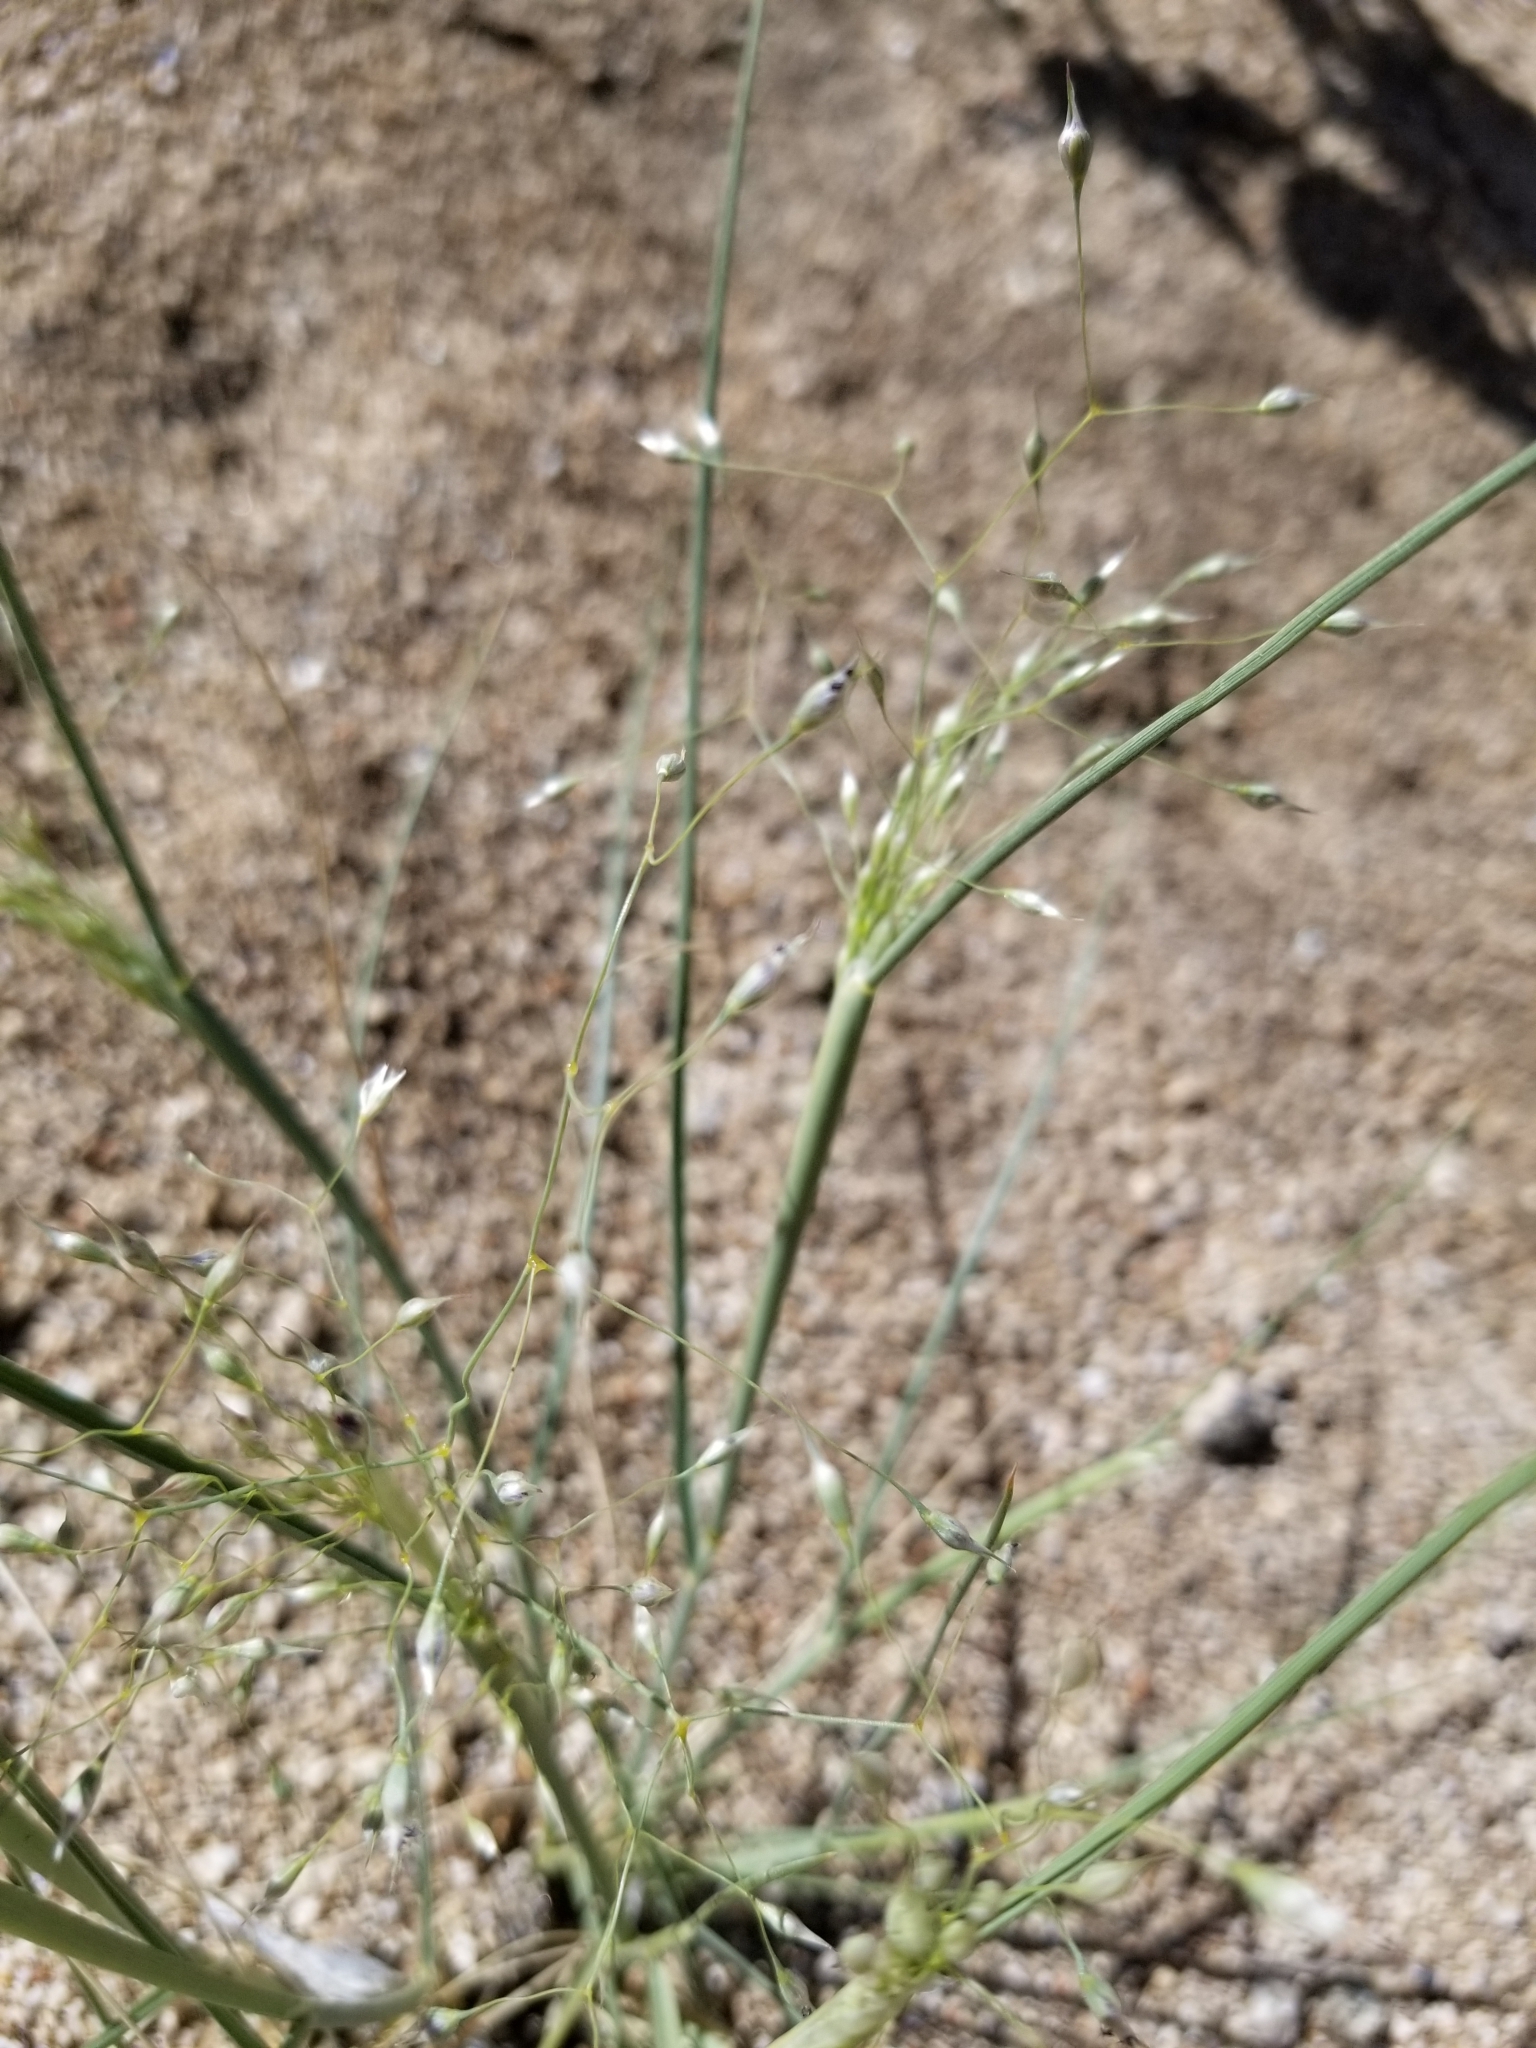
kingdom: Plantae
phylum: Tracheophyta
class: Liliopsida
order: Poales
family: Poaceae
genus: Eriocoma
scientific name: Eriocoma hymenoides
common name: Indian mountain ricegrass
